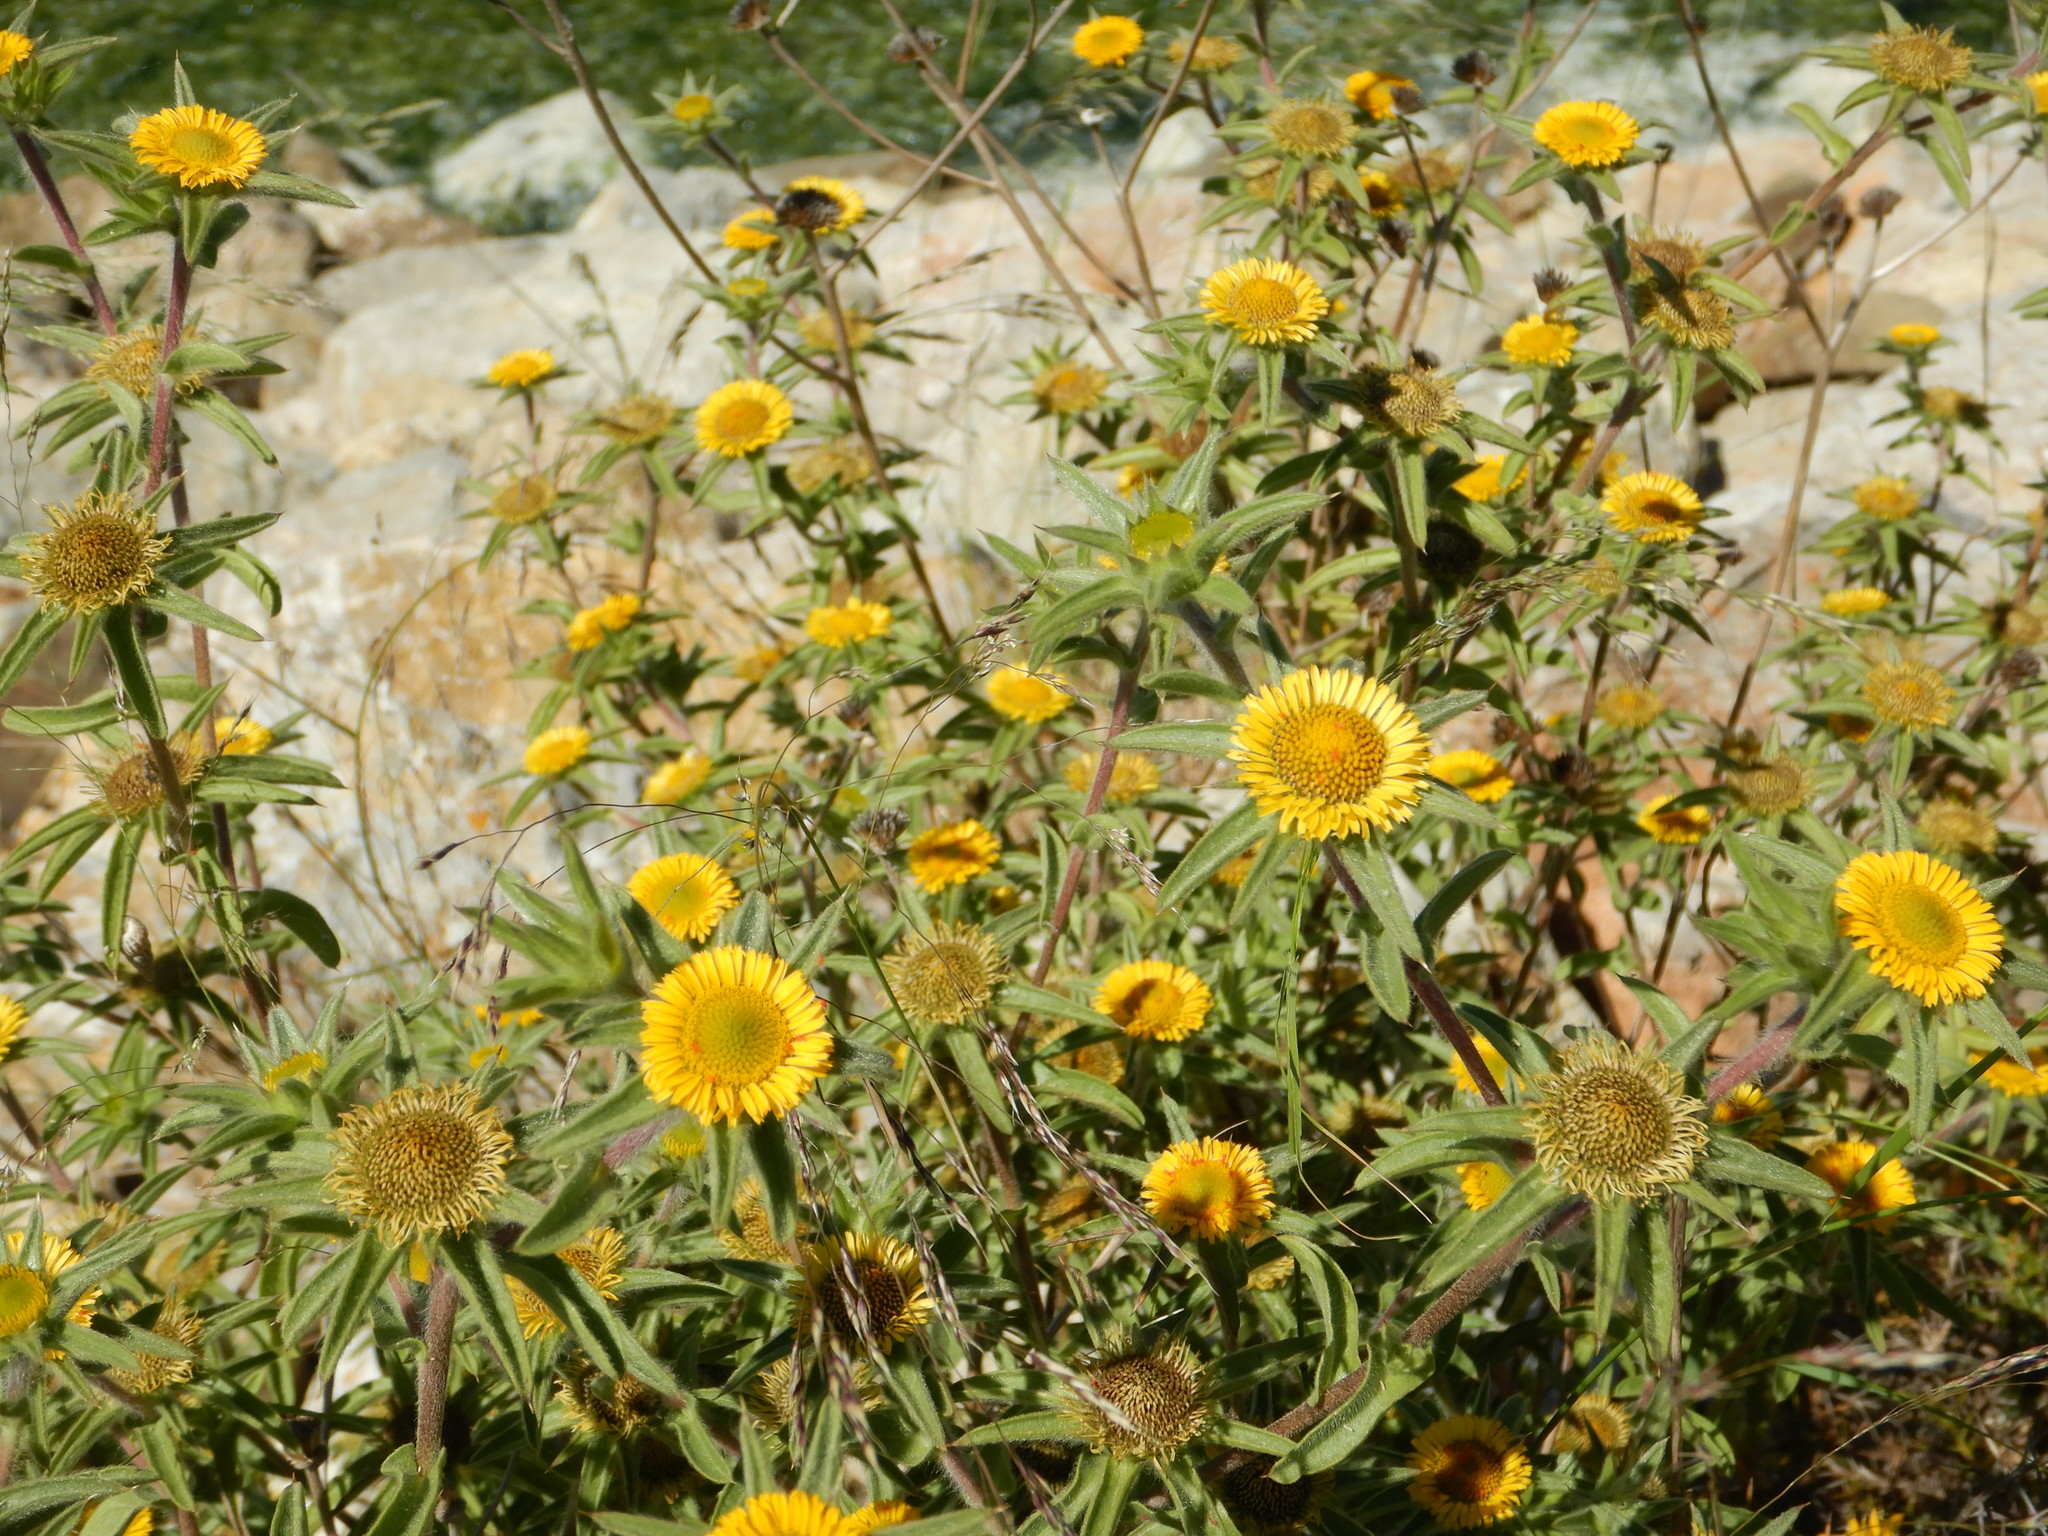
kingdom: Plantae
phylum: Tracheophyta
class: Magnoliopsida
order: Asterales
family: Asteraceae
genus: Pallenis
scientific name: Pallenis spinosa
